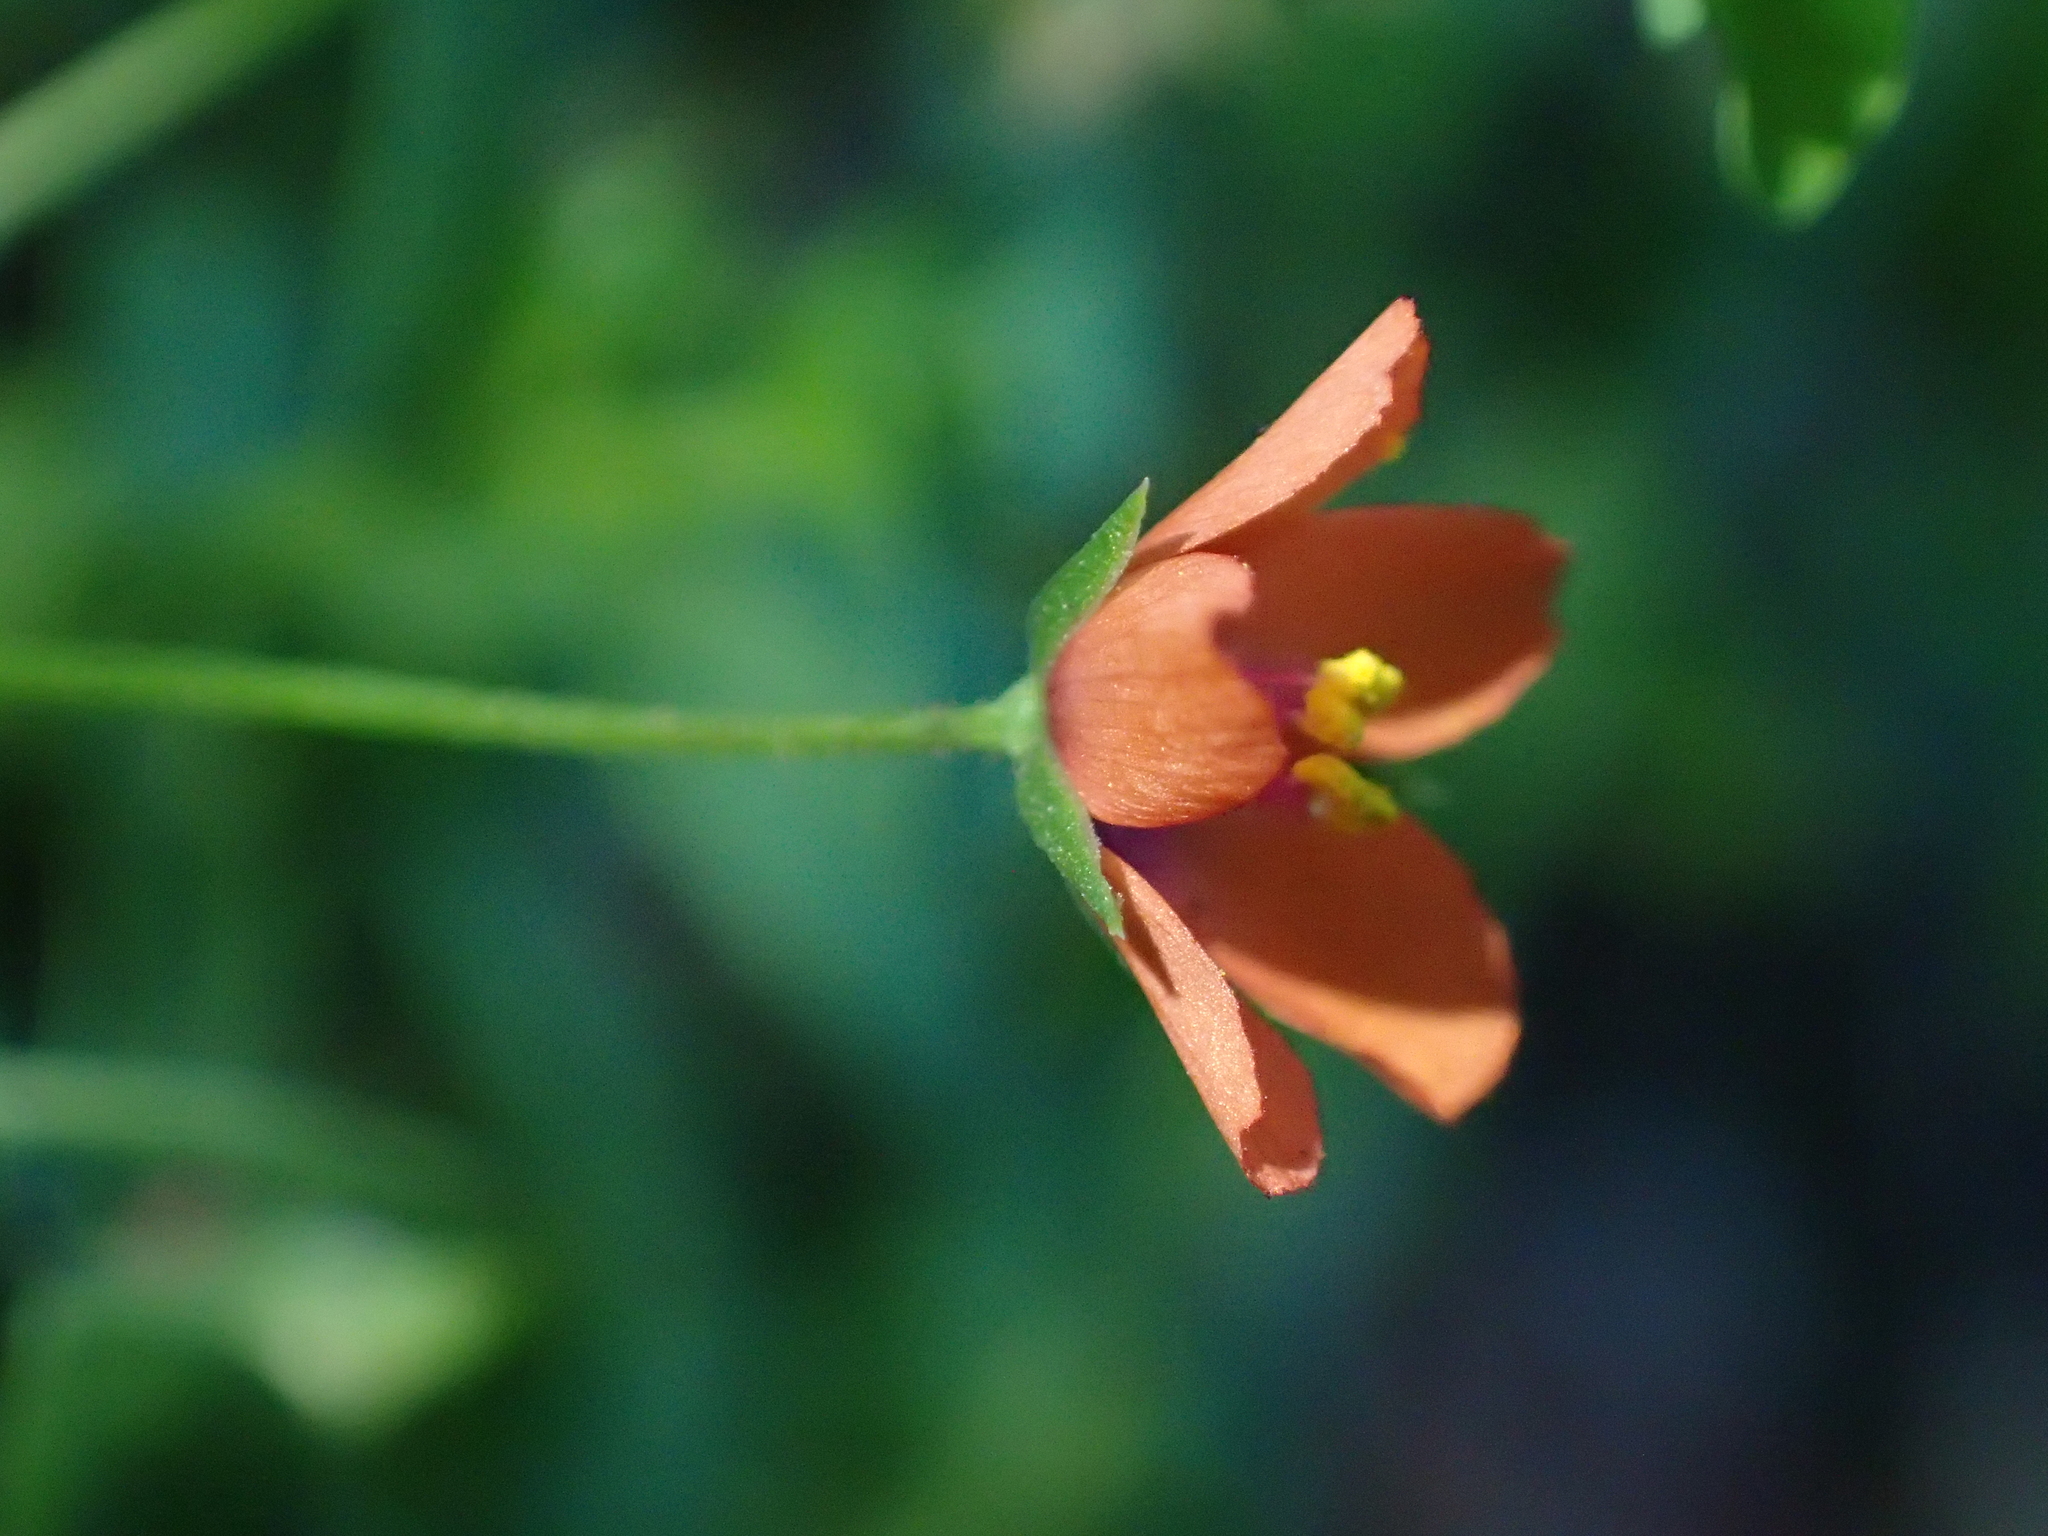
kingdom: Plantae
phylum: Tracheophyta
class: Magnoliopsida
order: Ericales
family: Primulaceae
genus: Lysimachia
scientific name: Lysimachia arvensis
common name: Scarlet pimpernel
